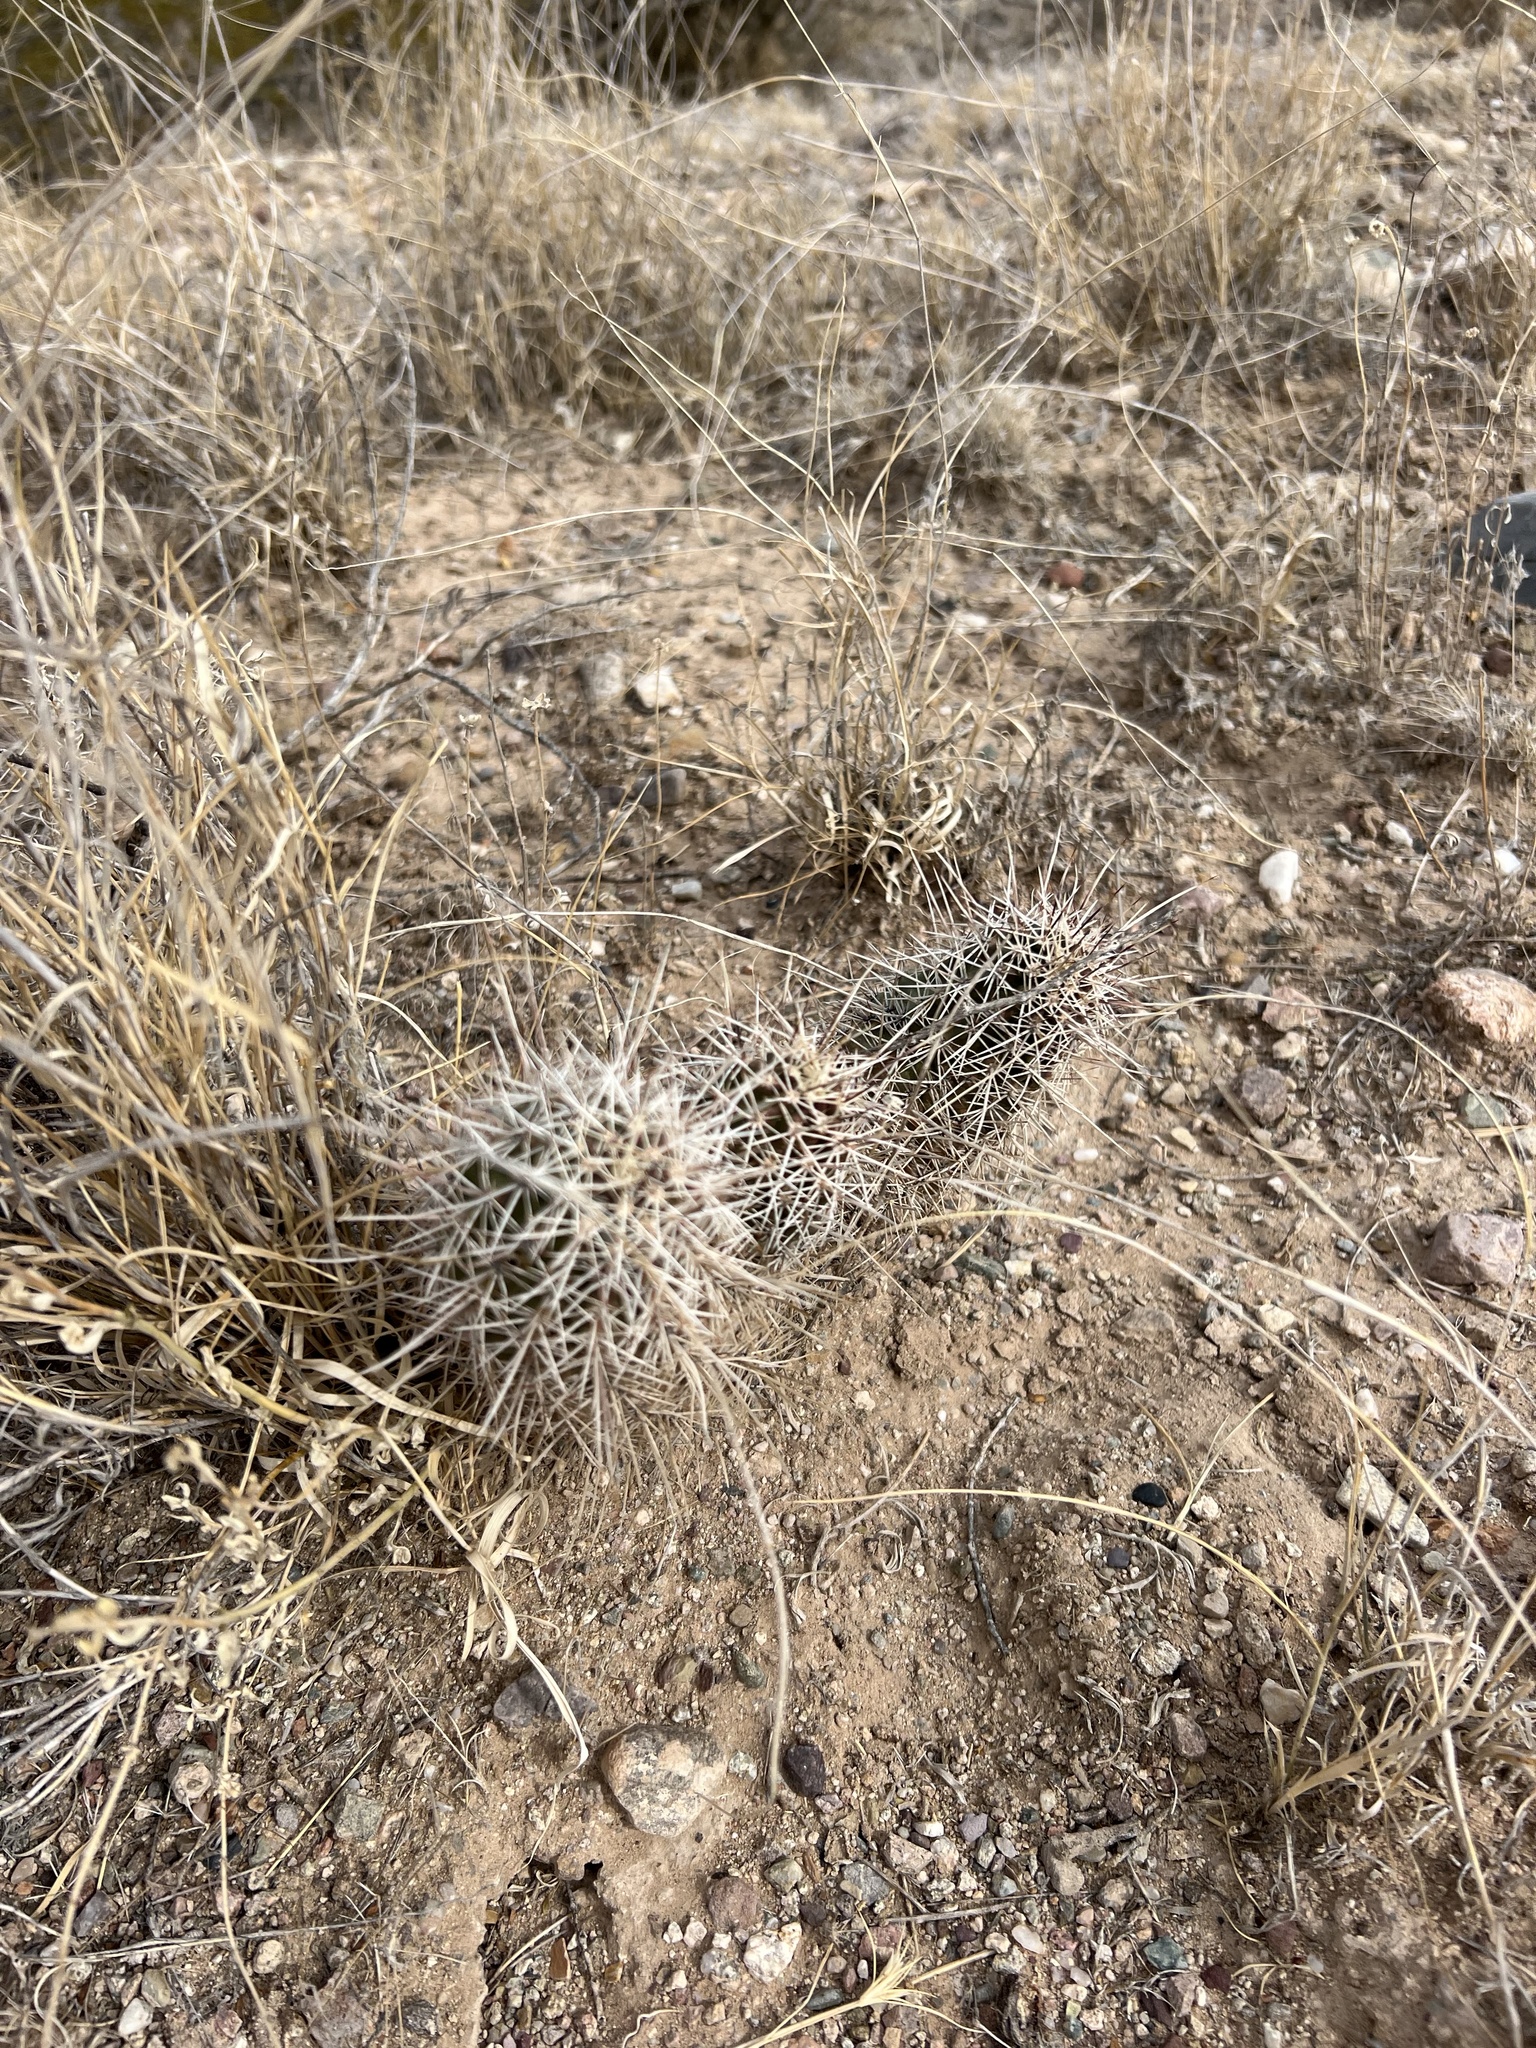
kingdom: Plantae
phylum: Tracheophyta
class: Magnoliopsida
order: Caryophyllales
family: Cactaceae
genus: Echinocereus
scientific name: Echinocereus fendleri
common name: Fendler's hedgehog cactus
